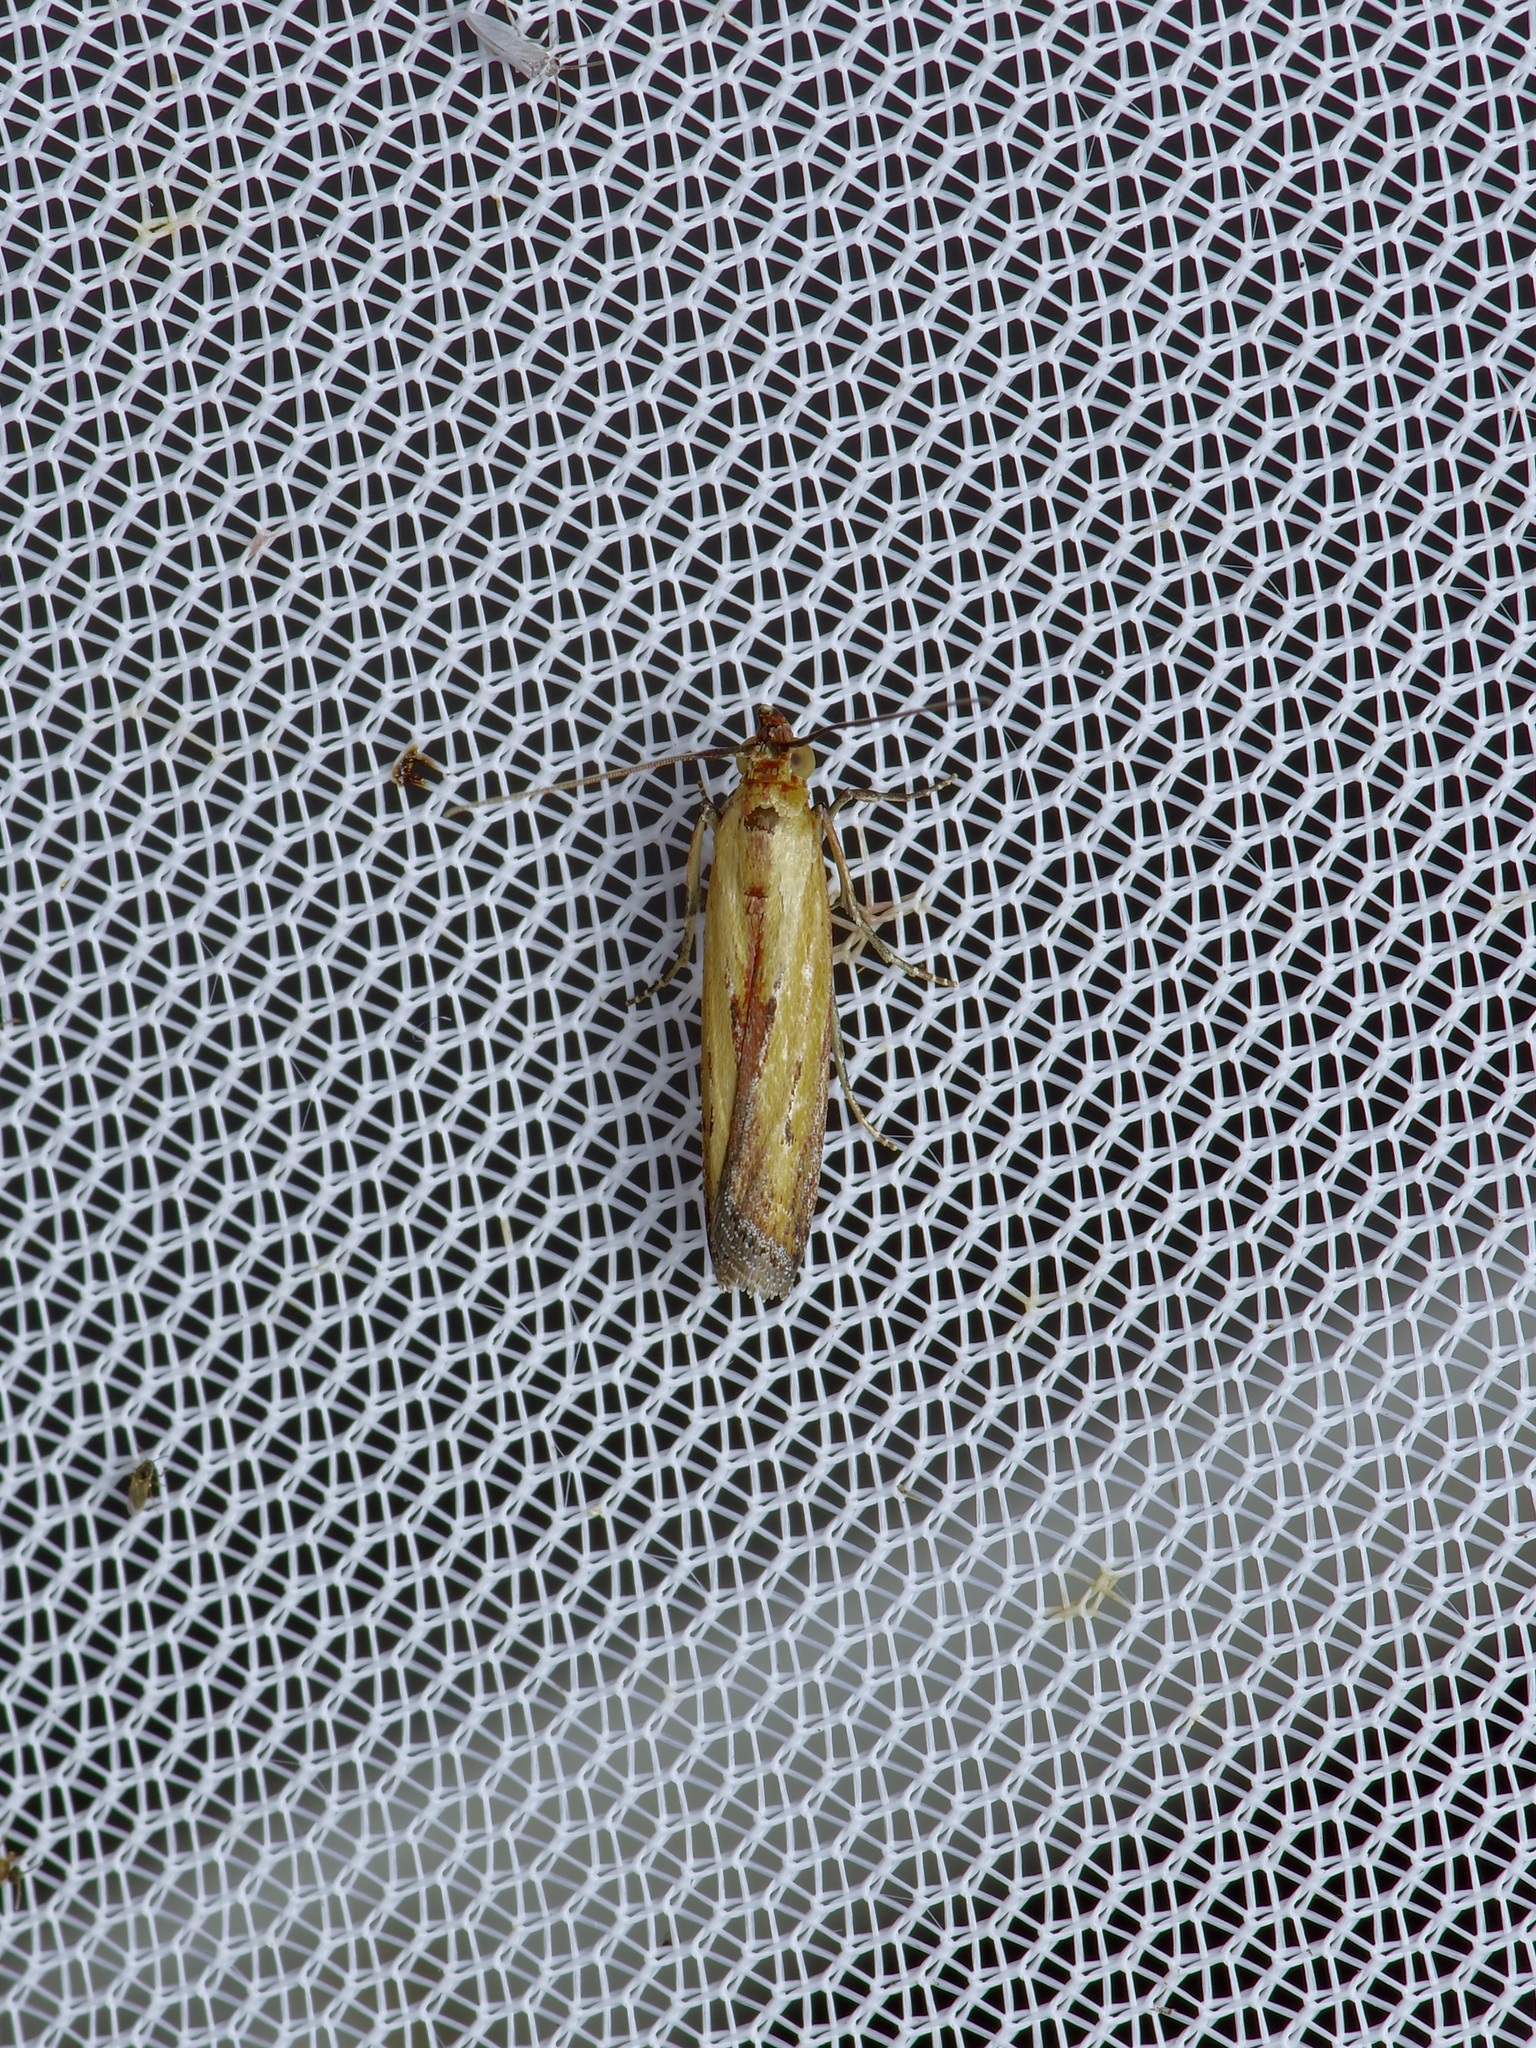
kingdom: Animalia
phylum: Arthropoda
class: Insecta
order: Lepidoptera
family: Pyralidae
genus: Elasmopalpus
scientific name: Elasmopalpus lignosella
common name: Lesser cornstalk borer
